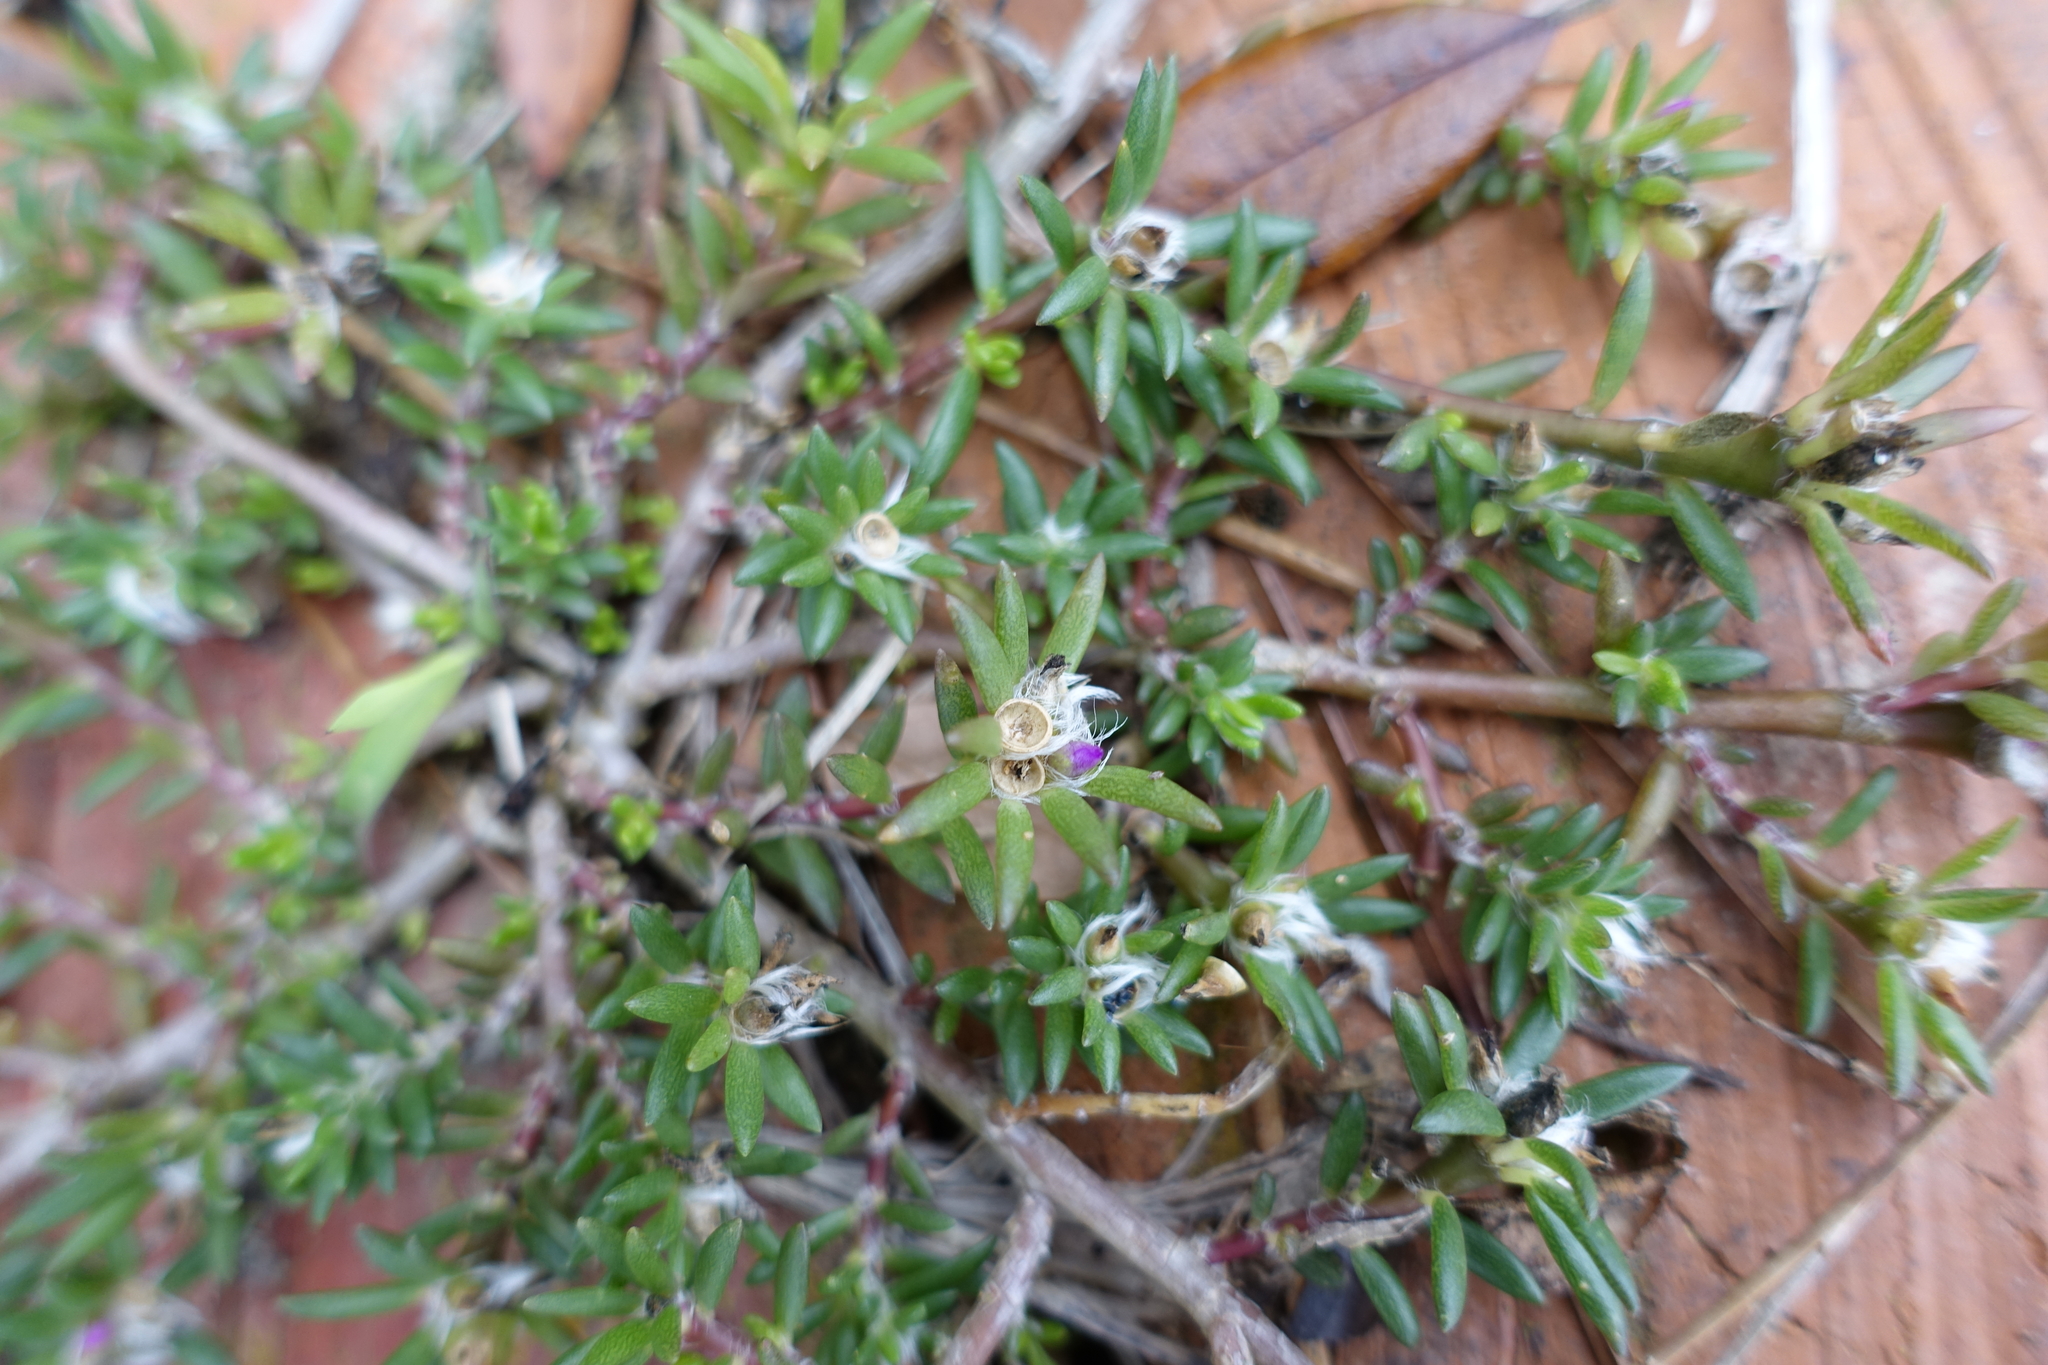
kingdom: Plantae
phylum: Tracheophyta
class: Magnoliopsida
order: Caryophyllales
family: Portulacaceae
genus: Portulaca
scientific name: Portulaca pilosa
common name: Kiss me quick
